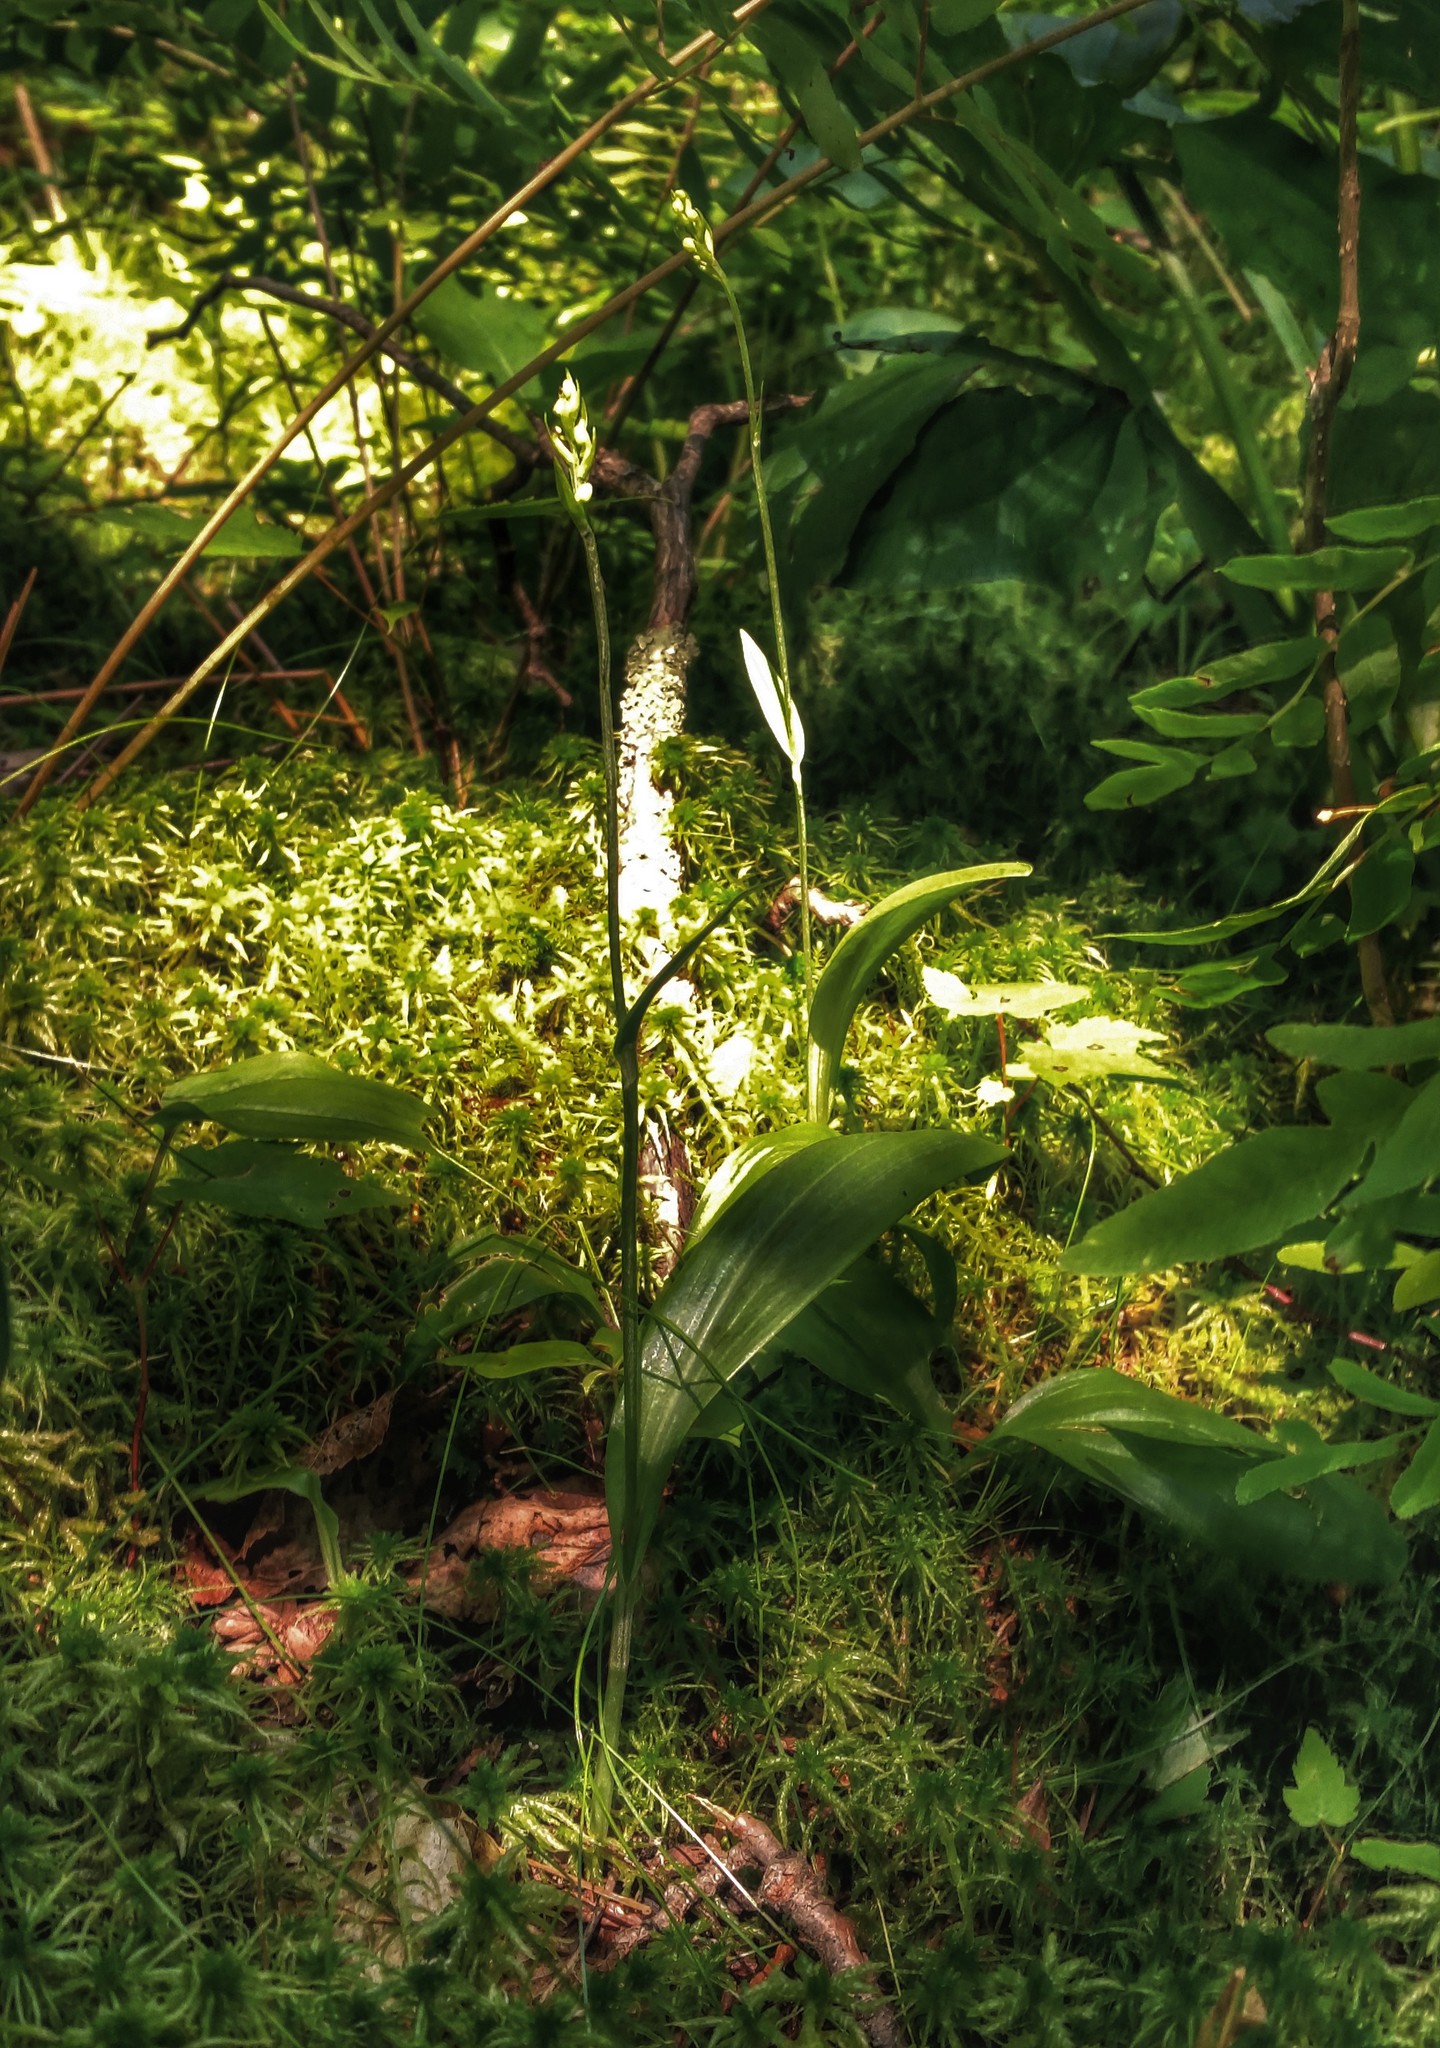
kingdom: Plantae
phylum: Tracheophyta
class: Liliopsida
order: Asparagales
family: Orchidaceae
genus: Platanthera
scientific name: Platanthera clavellata
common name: Club-spur orchid
